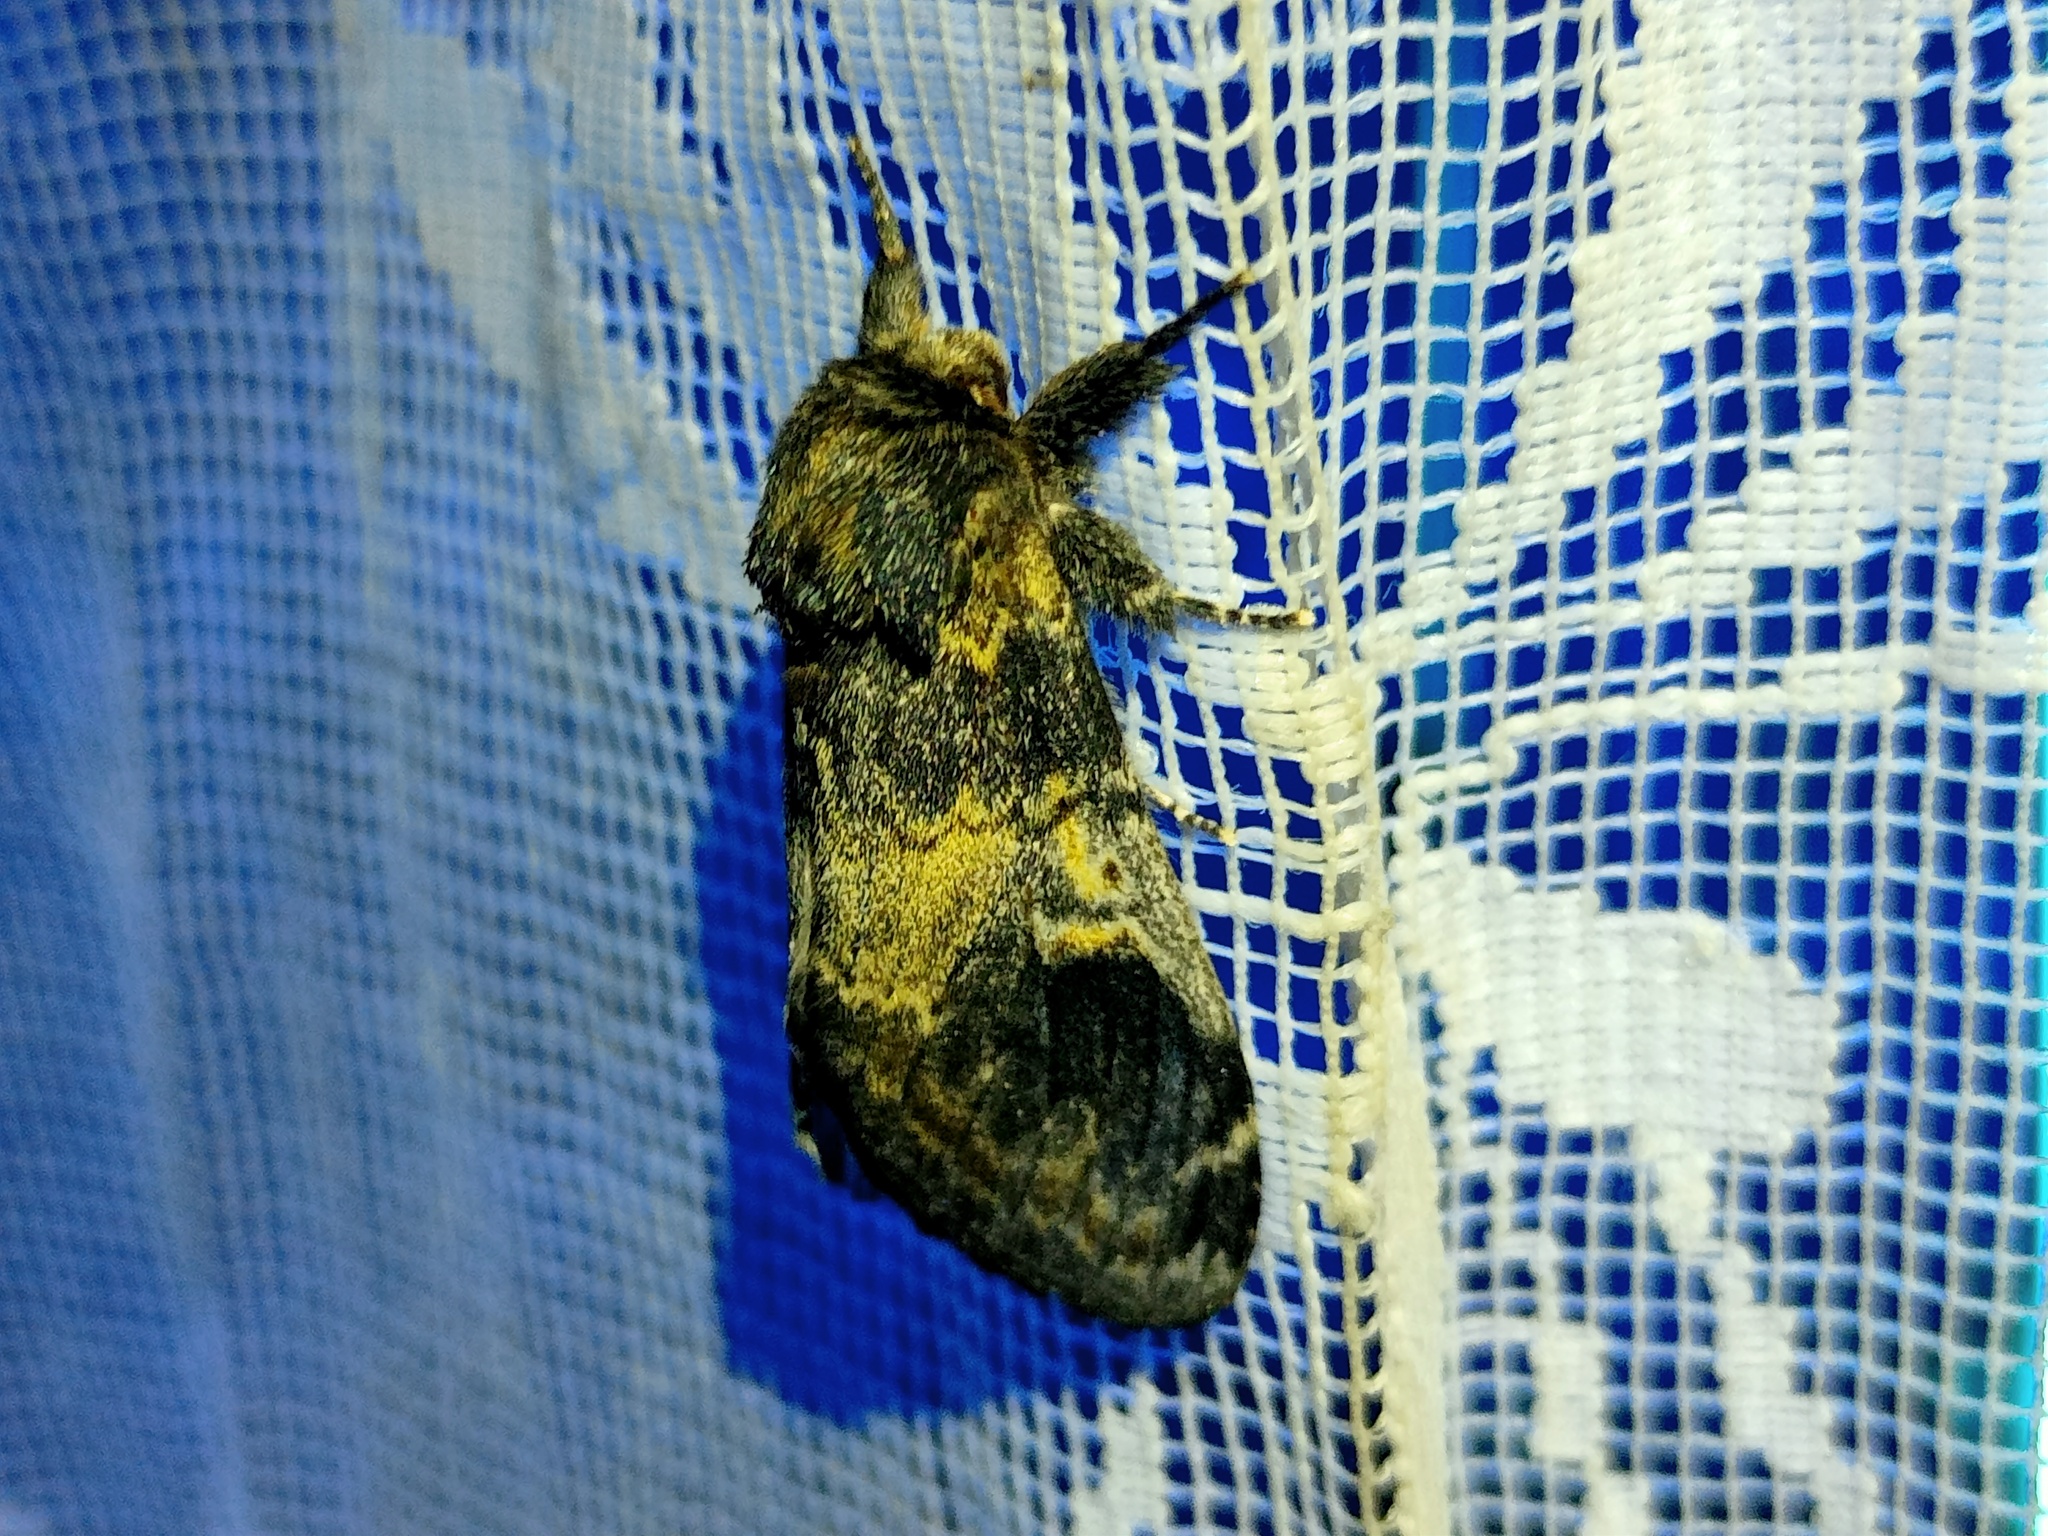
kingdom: Animalia
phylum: Arthropoda
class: Insecta
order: Lepidoptera
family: Notodontidae
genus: Notodonta
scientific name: Notodonta tritophus
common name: Three-humped prominent
